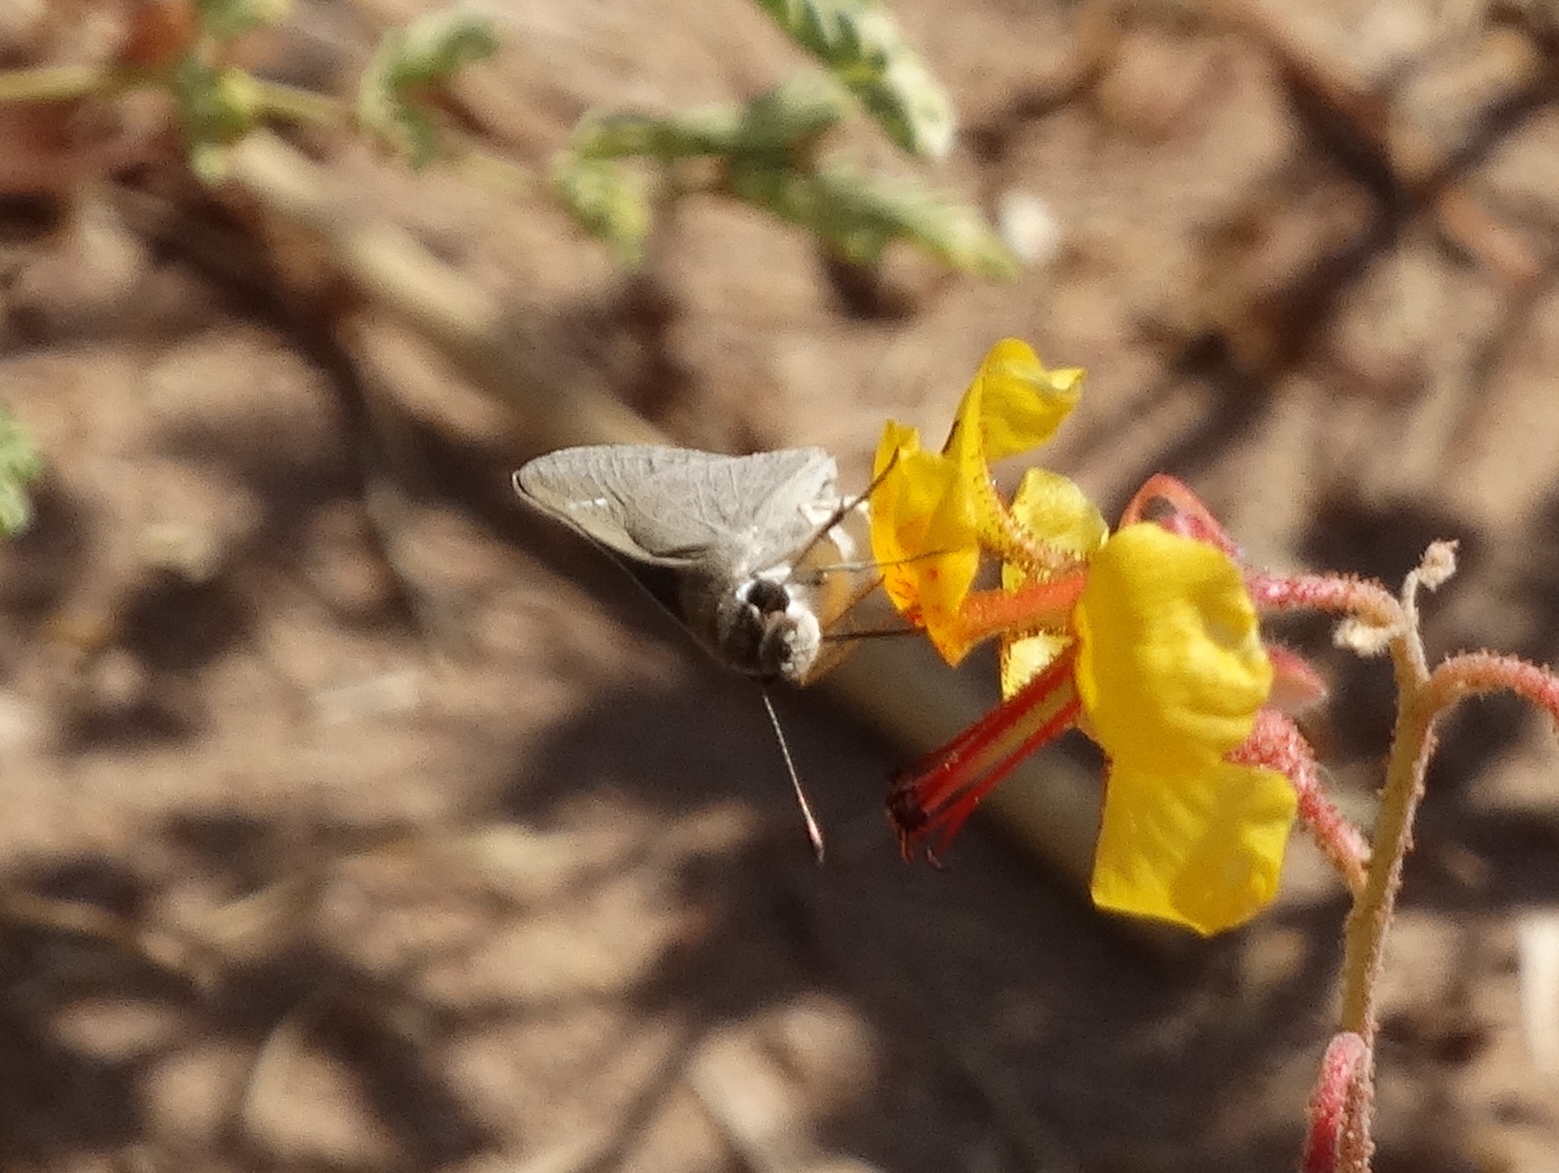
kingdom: Animalia
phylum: Arthropoda
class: Insecta
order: Lepidoptera
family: Hesperiidae
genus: Lerodea
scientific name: Lerodea eufala
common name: Eufala skipper
